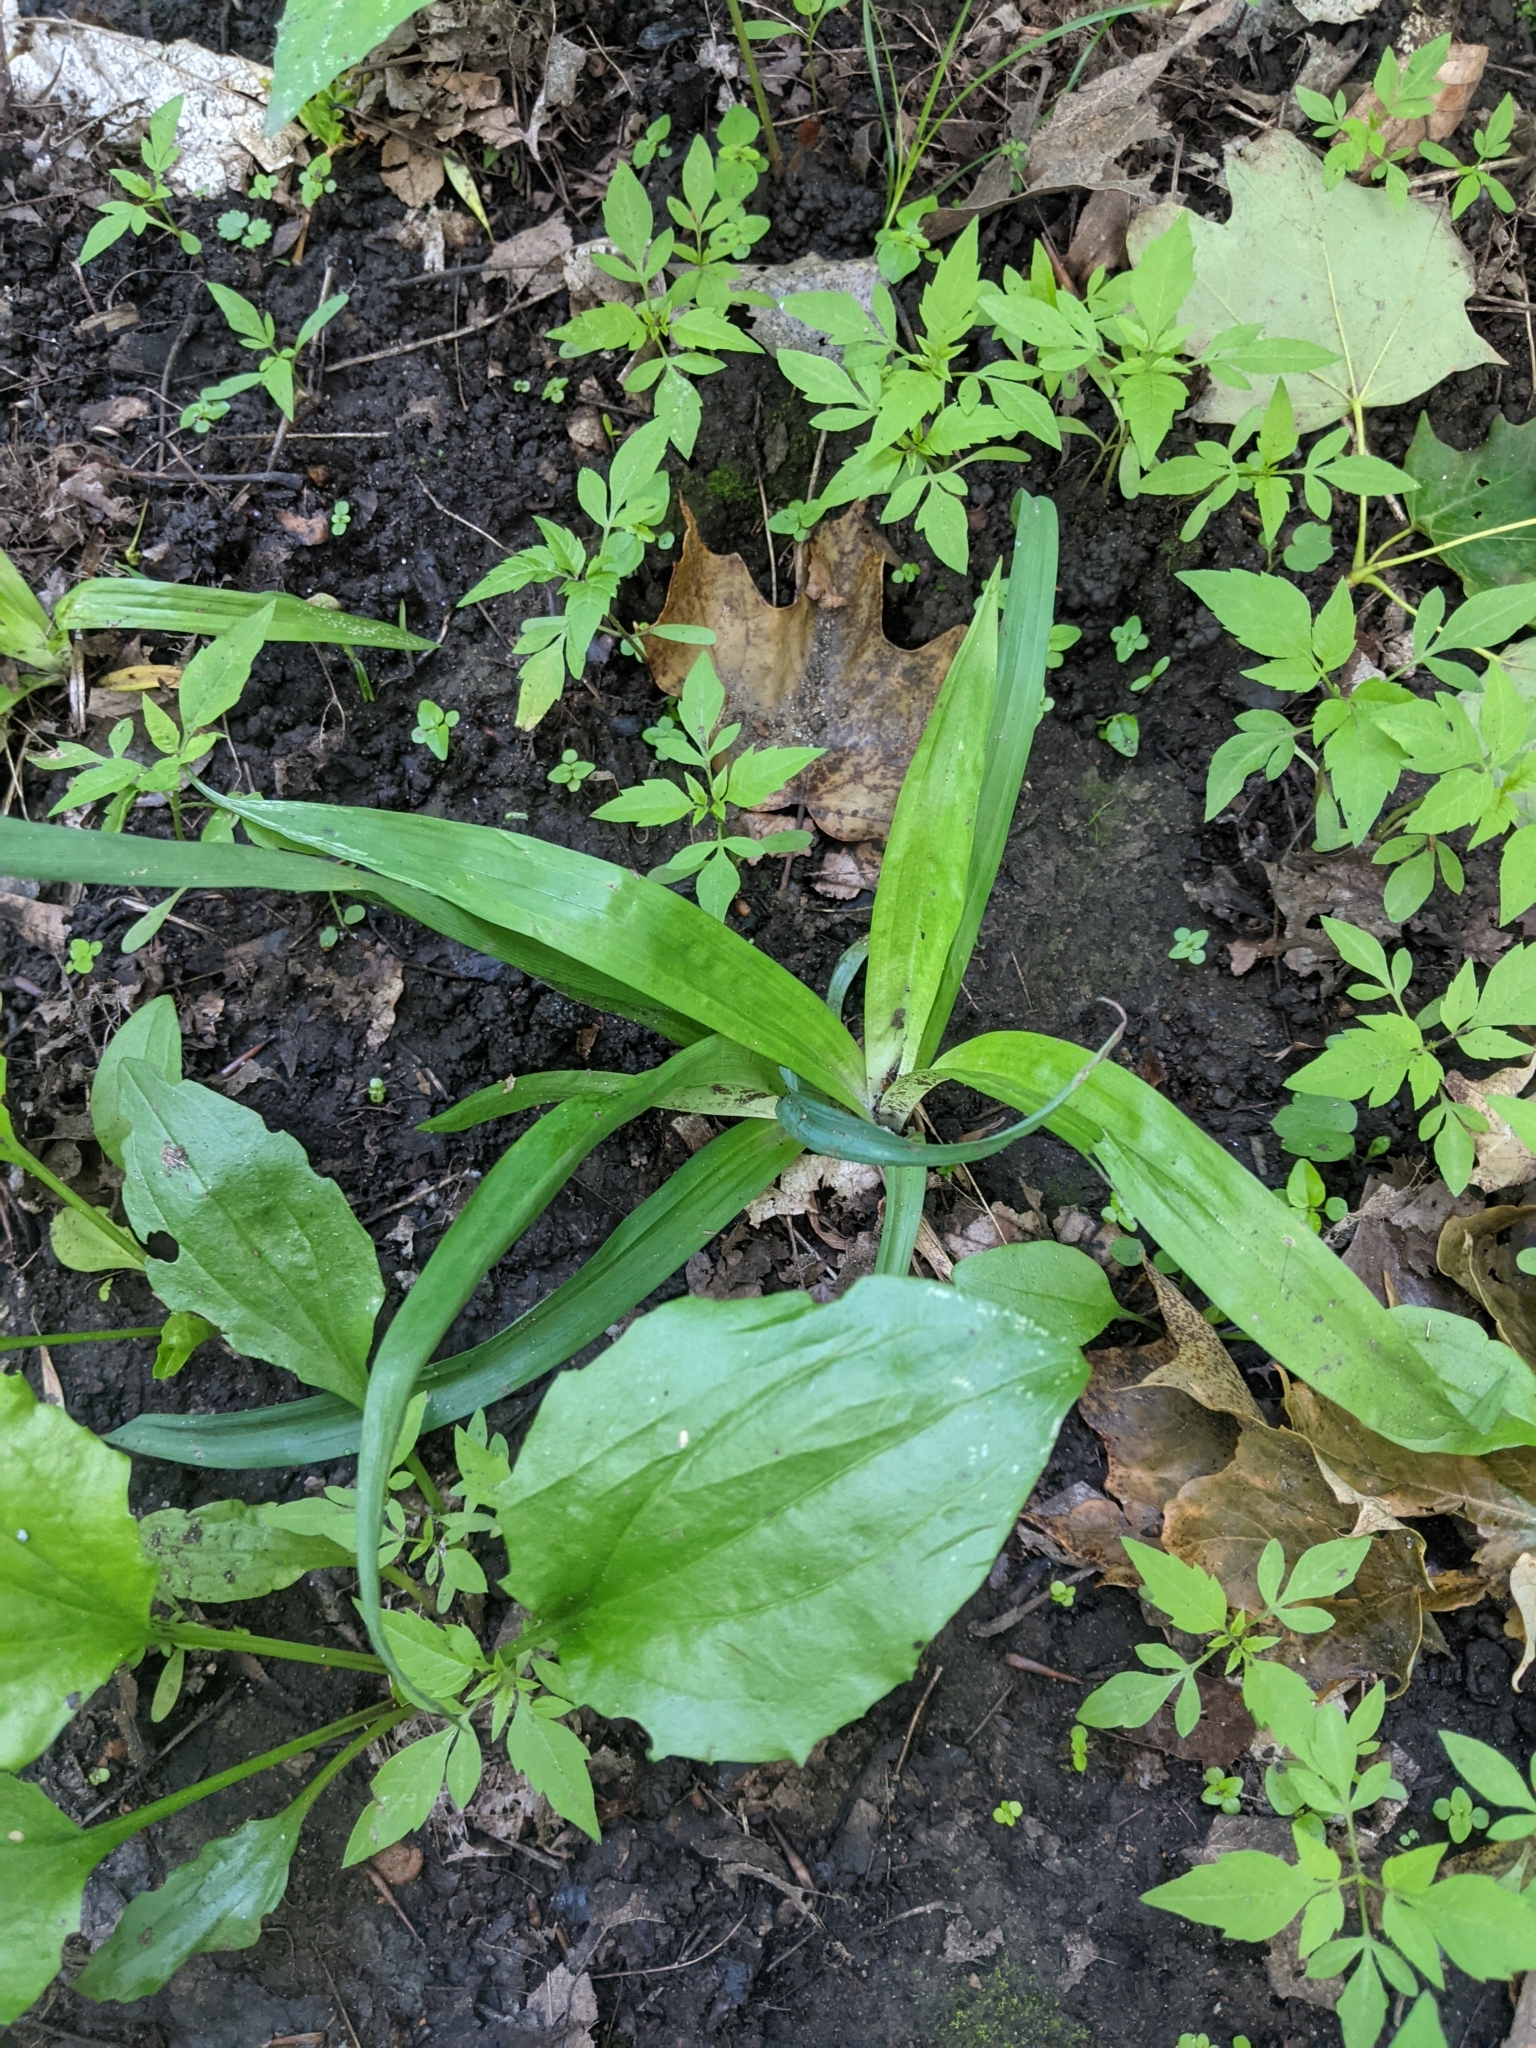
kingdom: Plantae
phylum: Tracheophyta
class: Liliopsida
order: Poales
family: Cyperaceae
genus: Carex
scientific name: Carex albursina
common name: Blunt-scale wood sedge
